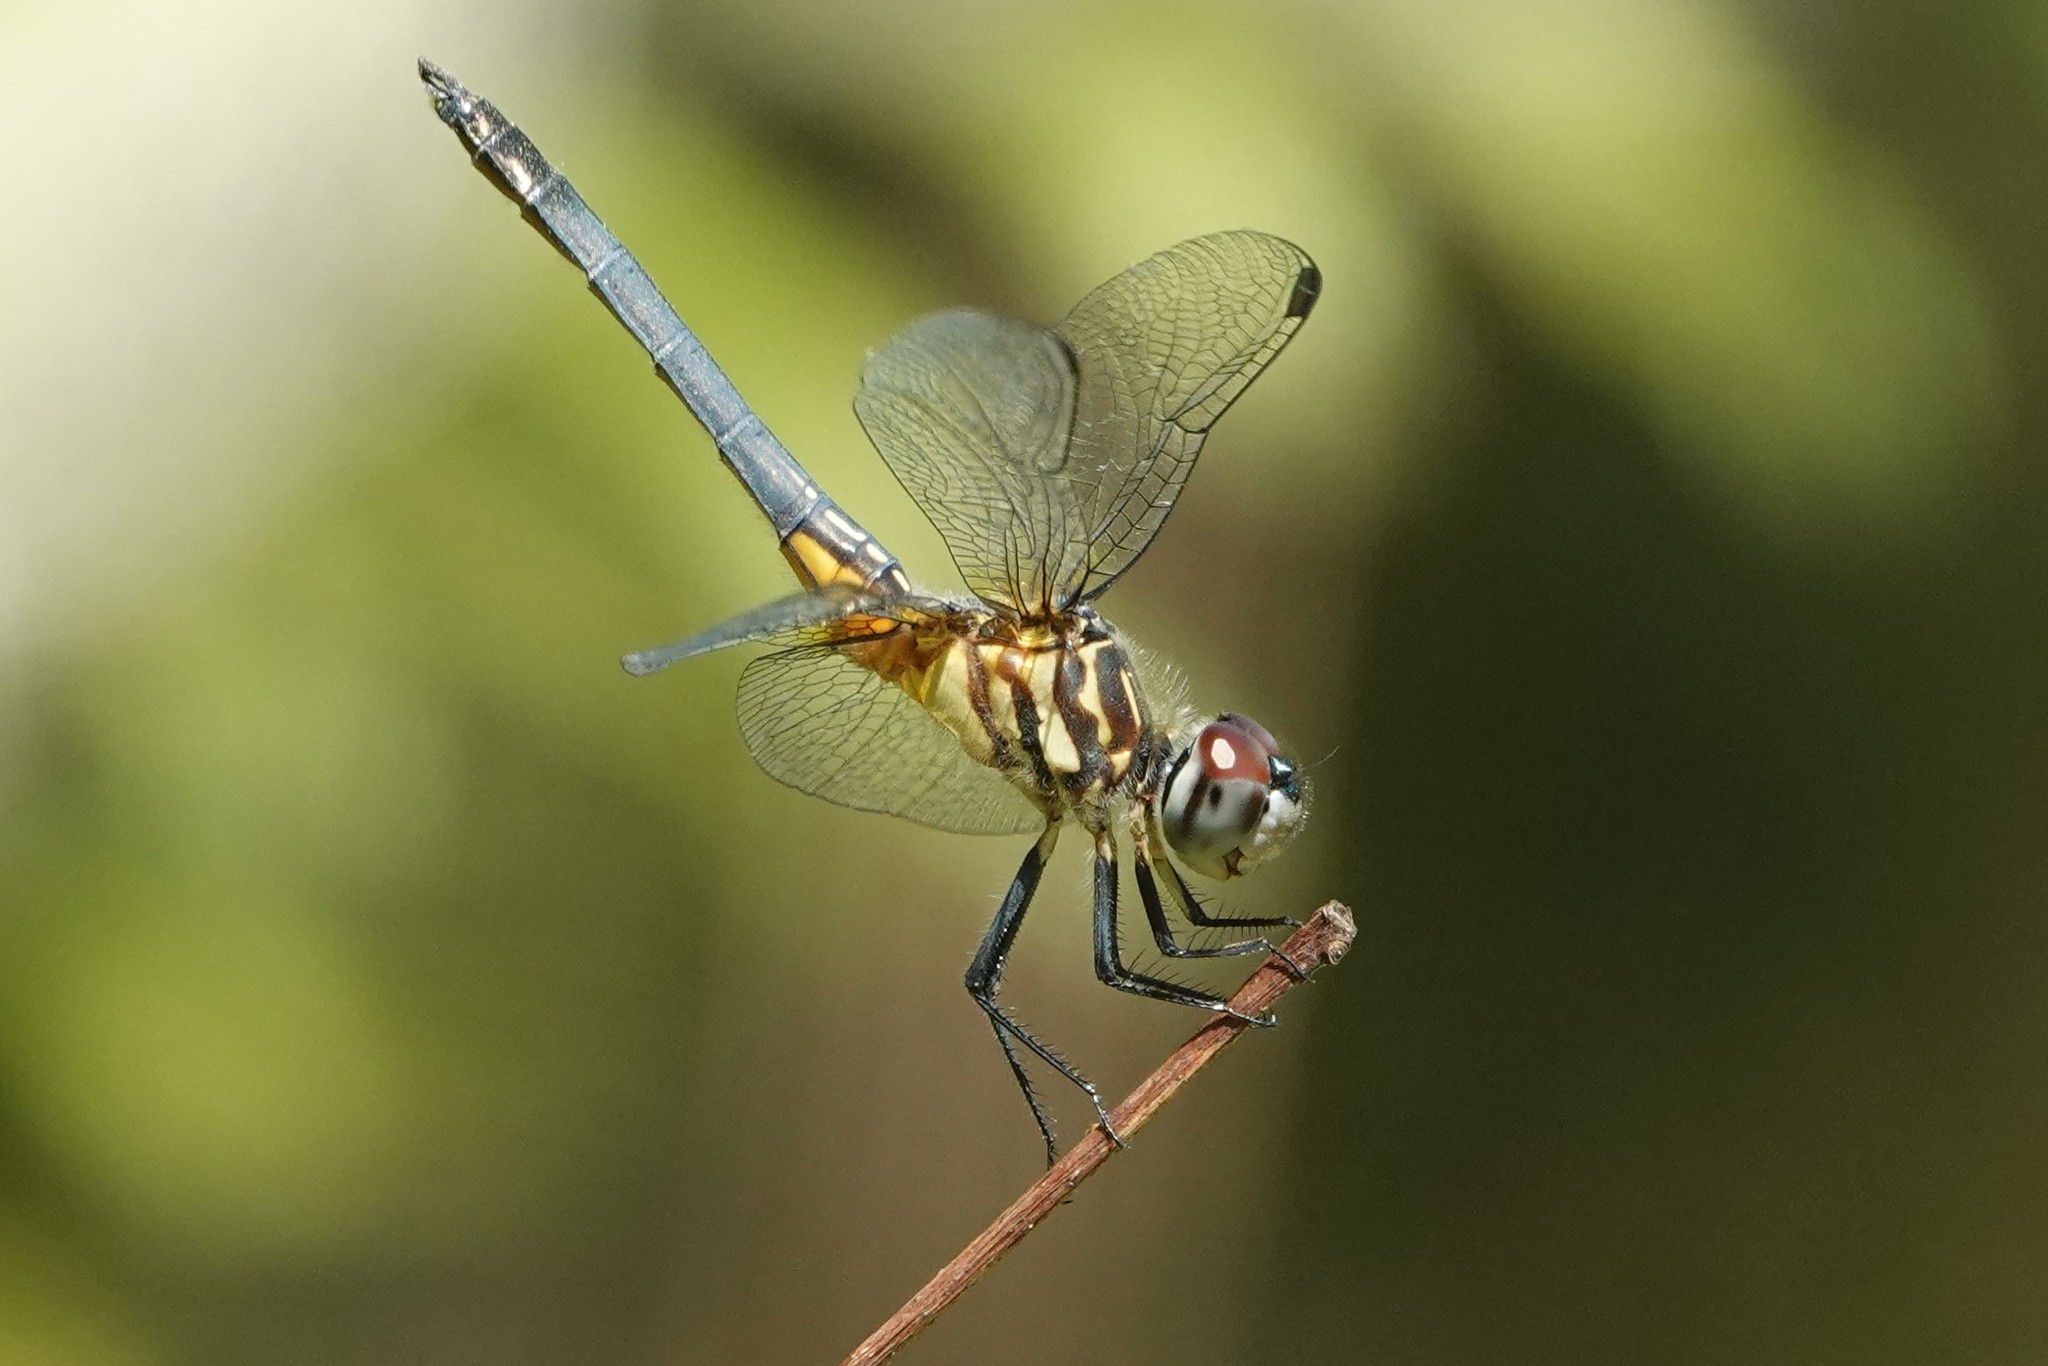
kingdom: Animalia
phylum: Arthropoda
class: Insecta
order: Odonata
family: Libellulidae
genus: Pachydiplax
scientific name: Pachydiplax longipennis
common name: Blue dasher
